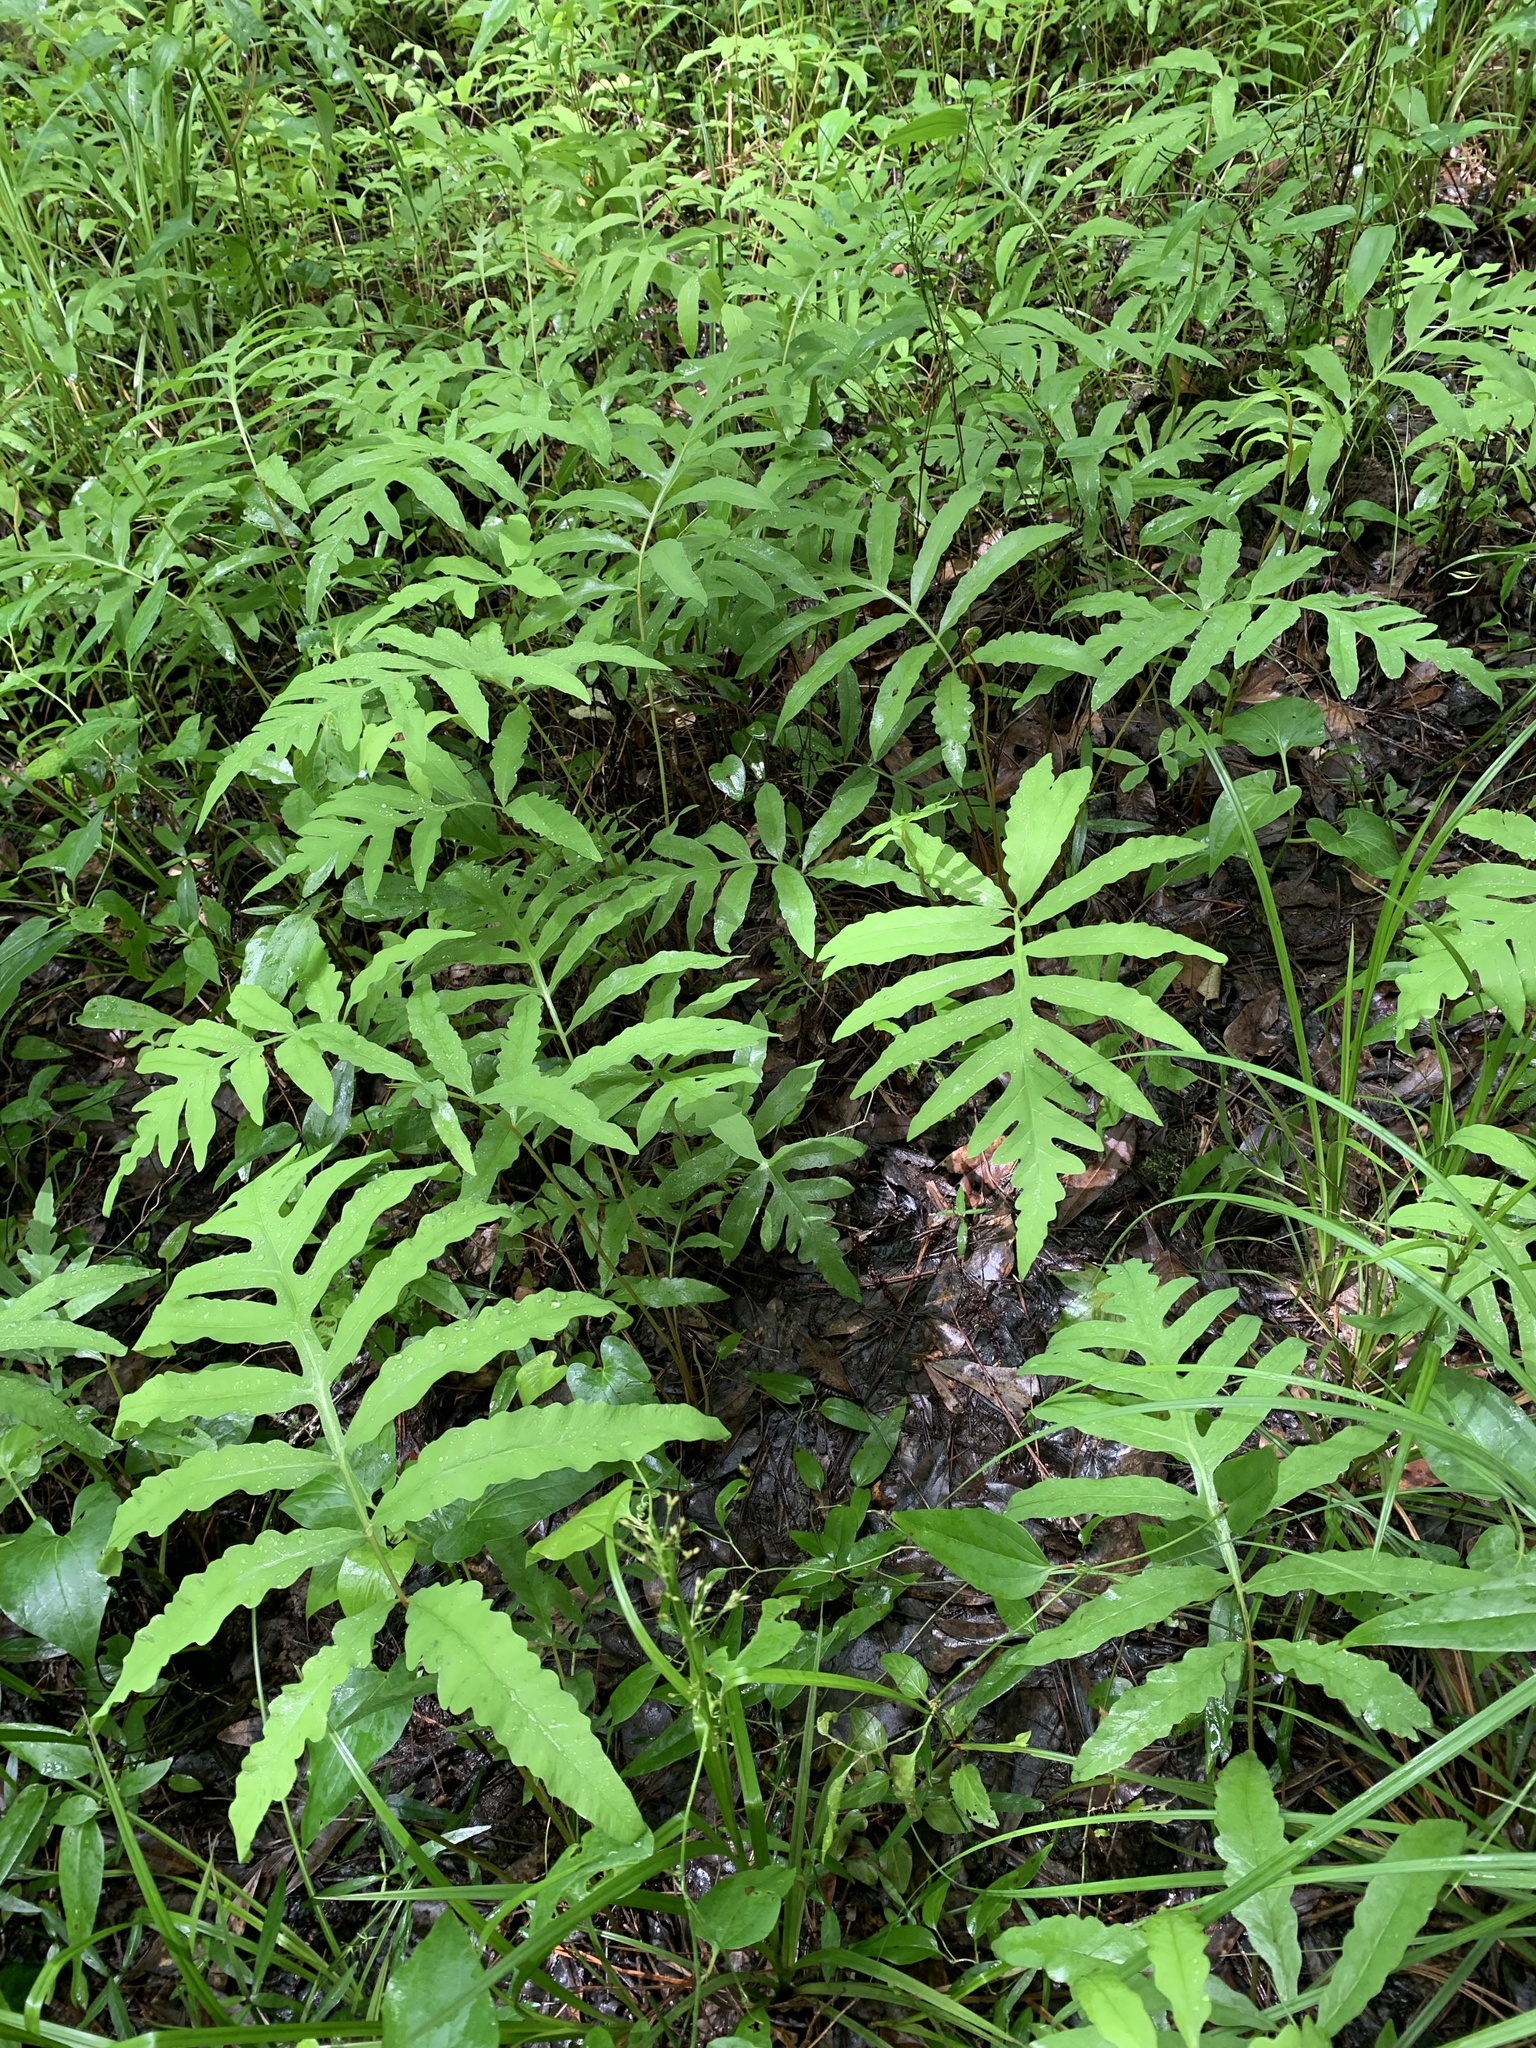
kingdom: Plantae
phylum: Tracheophyta
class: Polypodiopsida
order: Polypodiales
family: Onocleaceae
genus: Onoclea
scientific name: Onoclea sensibilis
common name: Sensitive fern
